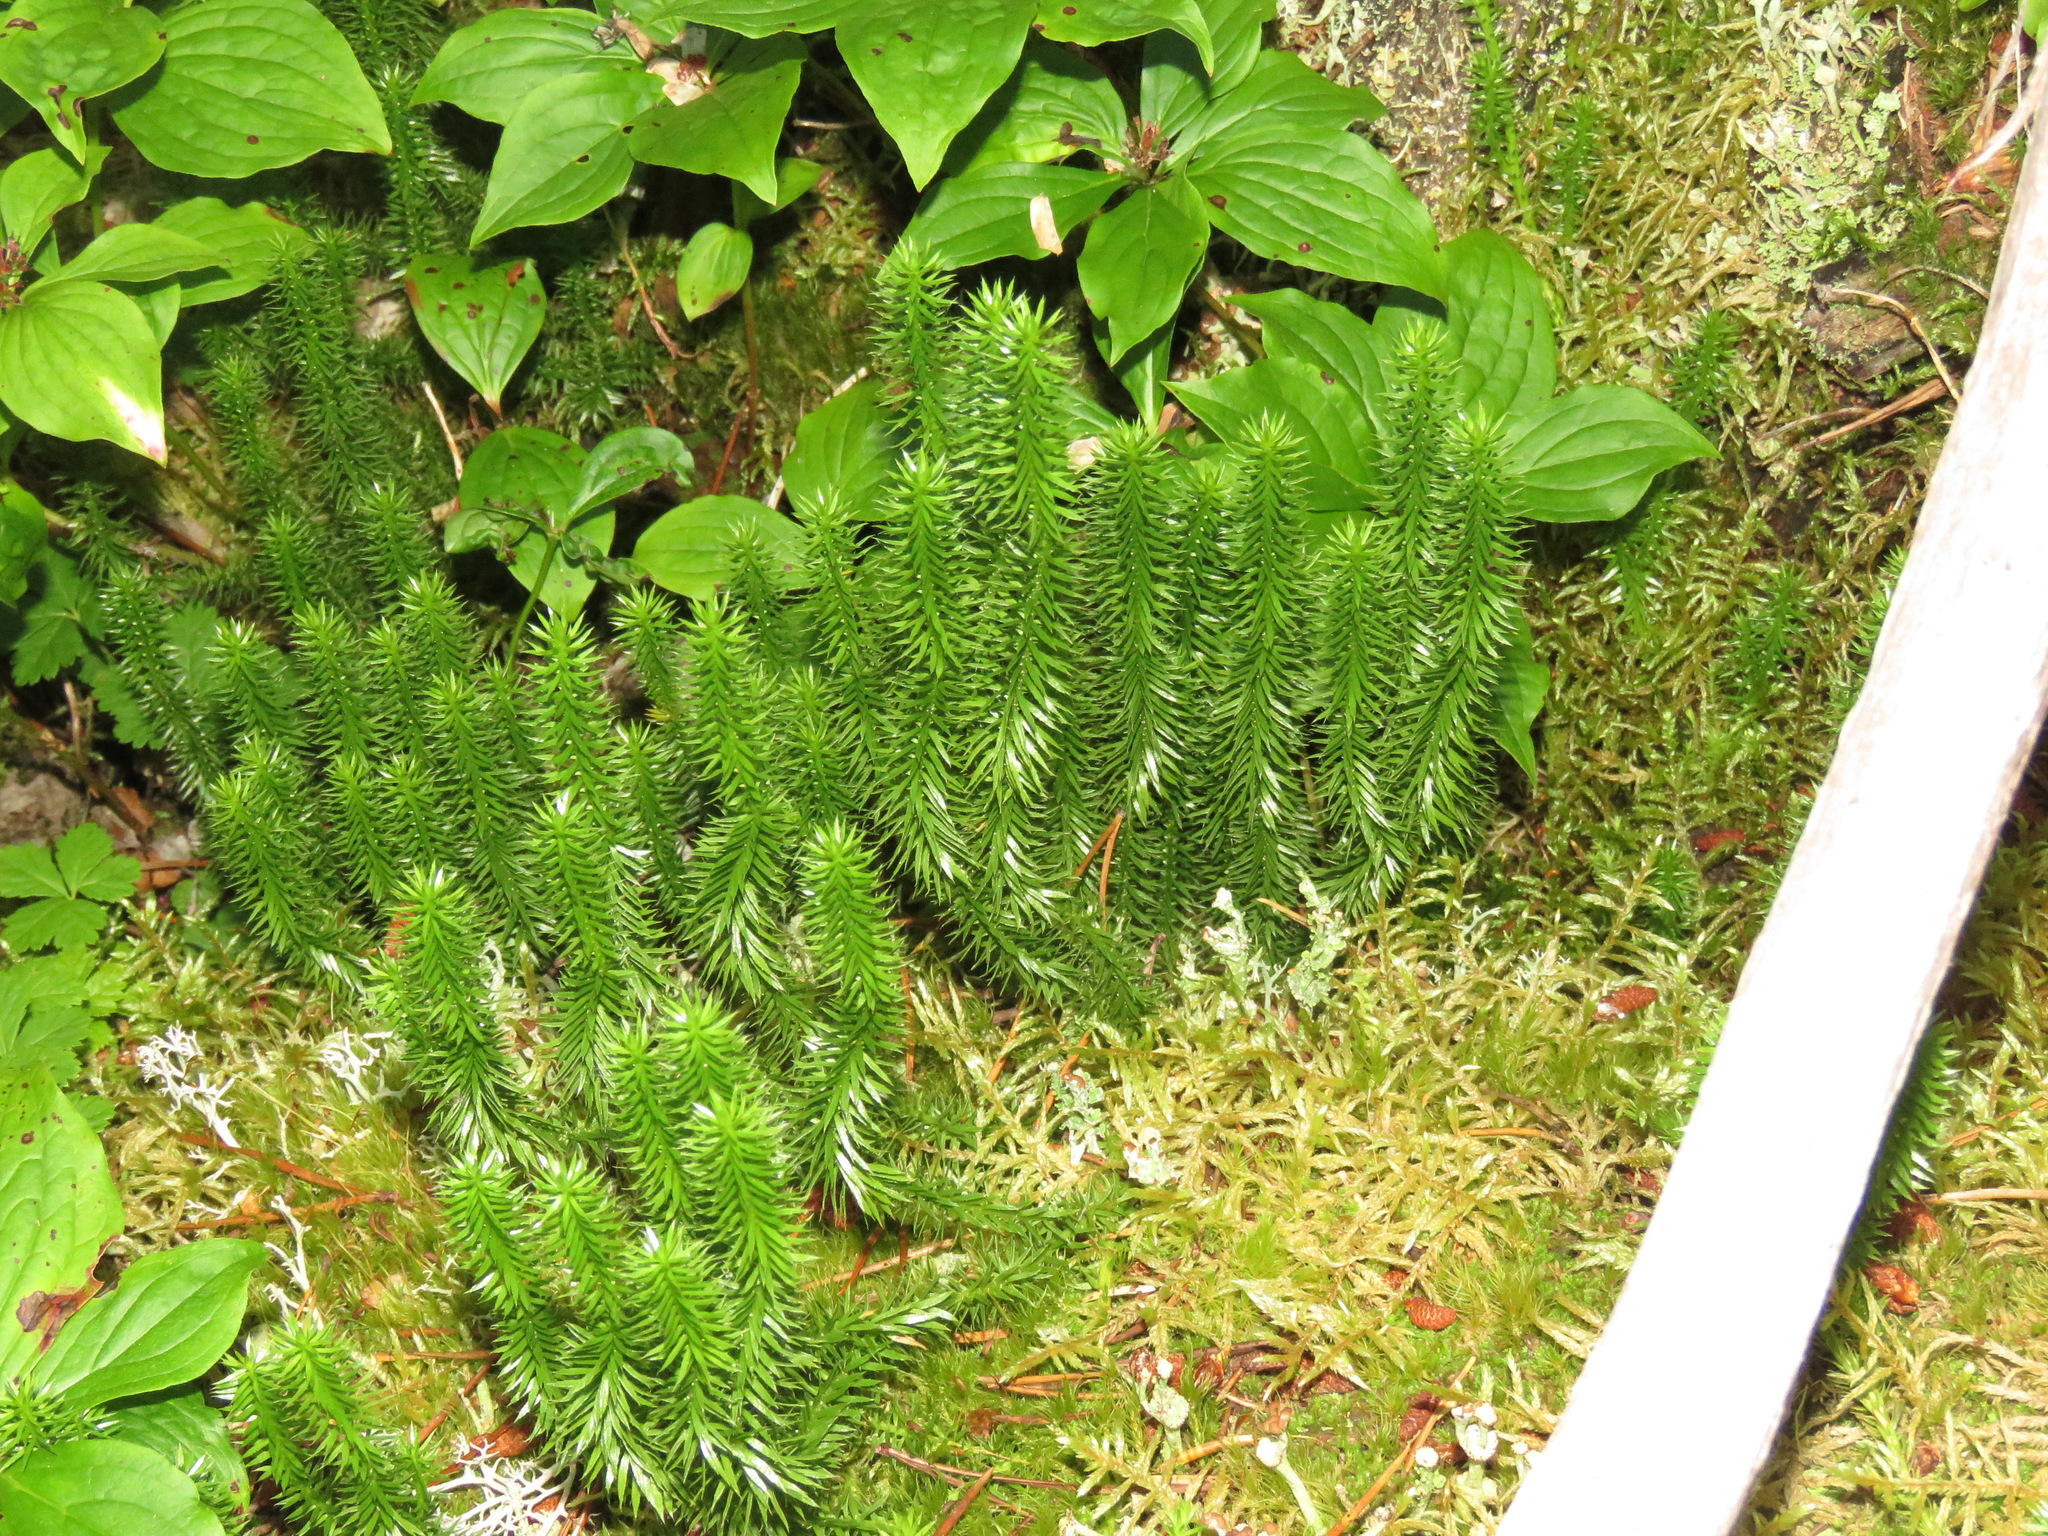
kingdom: Plantae
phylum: Tracheophyta
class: Lycopodiopsida
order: Lycopodiales
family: Lycopodiaceae
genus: Spinulum
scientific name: Spinulum annotinum
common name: Interrupted club-moss
